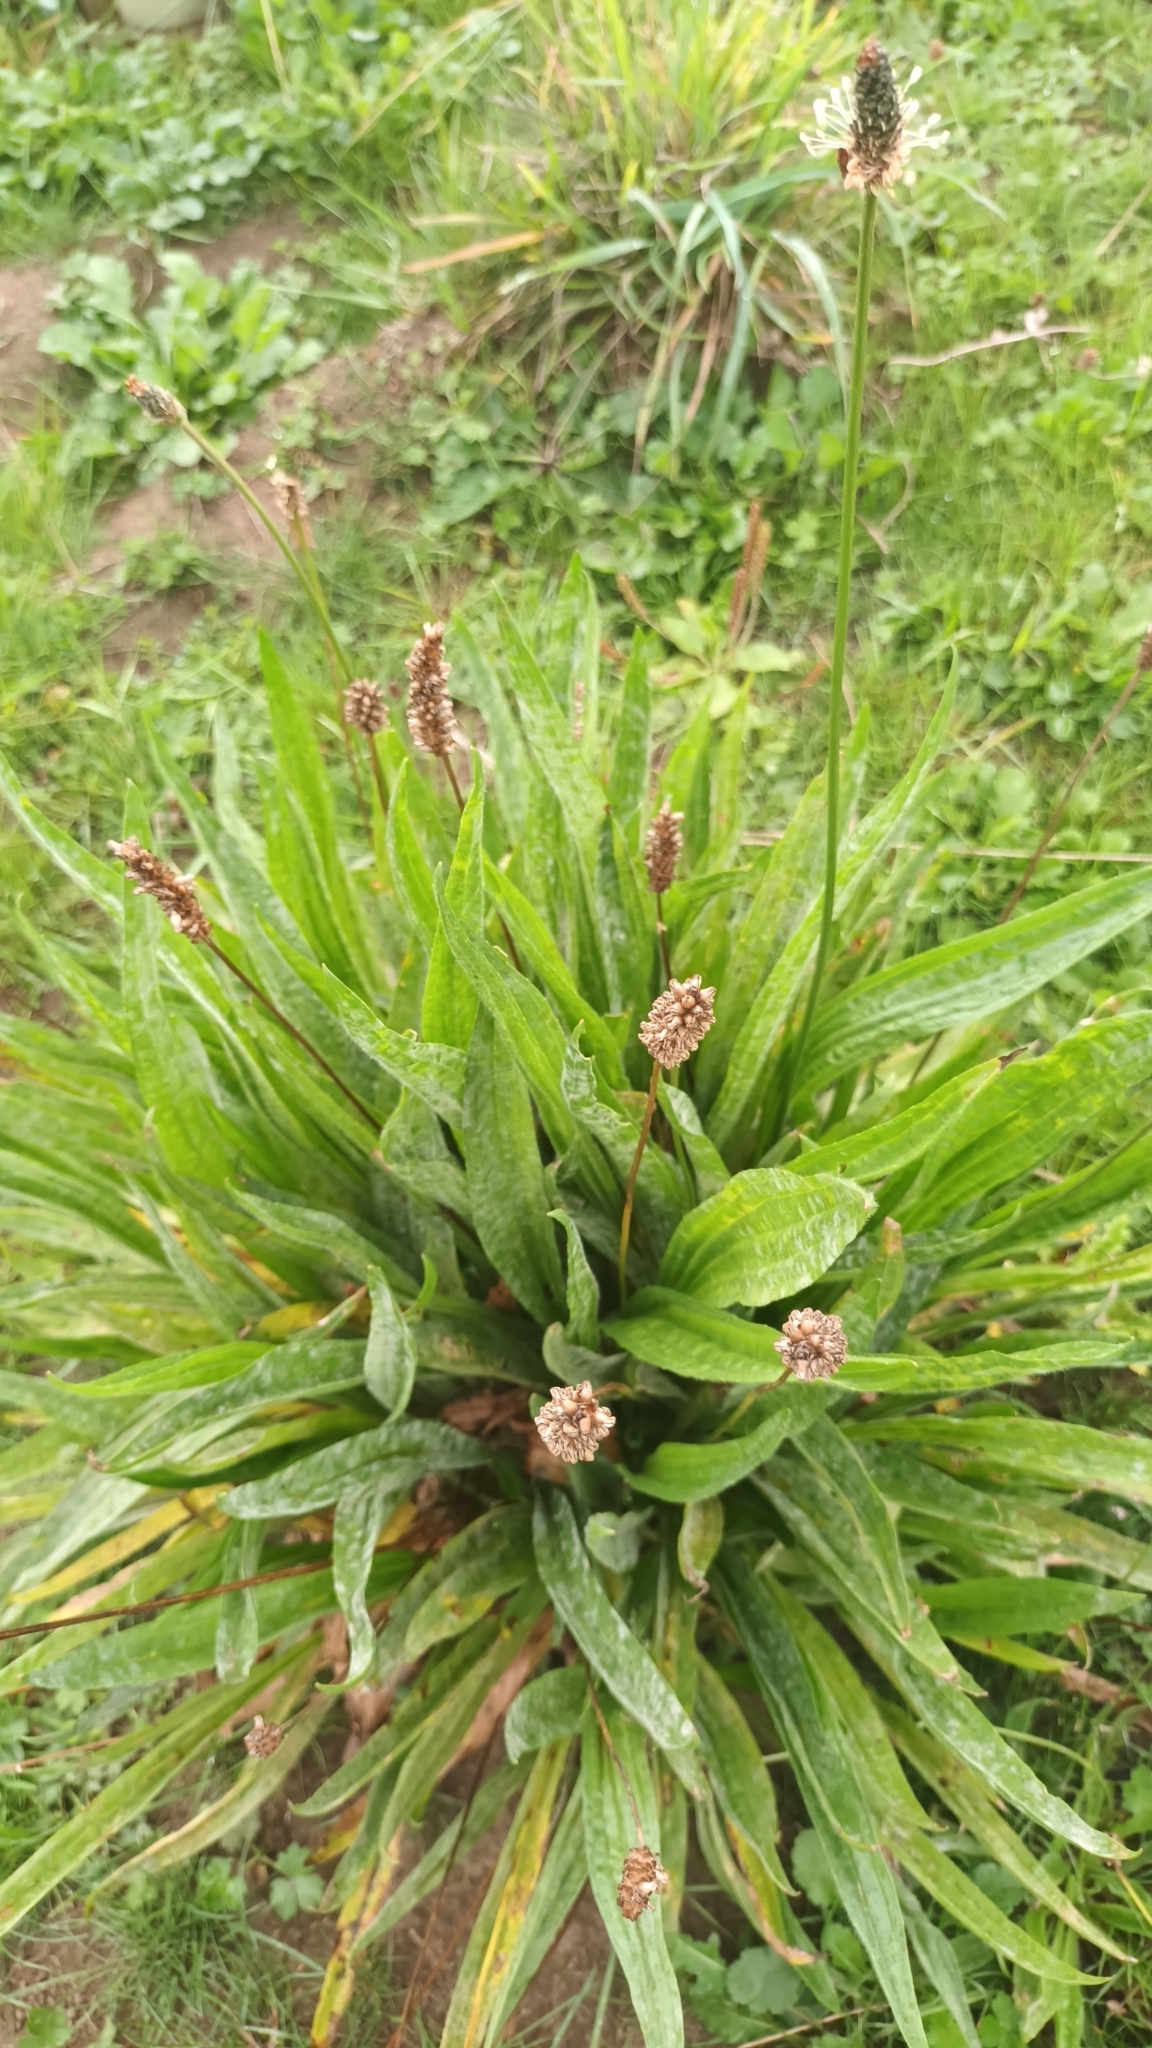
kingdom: Plantae
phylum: Tracheophyta
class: Magnoliopsida
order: Lamiales
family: Plantaginaceae
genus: Plantago
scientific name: Plantago lanceolata
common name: Ribwort plantain
